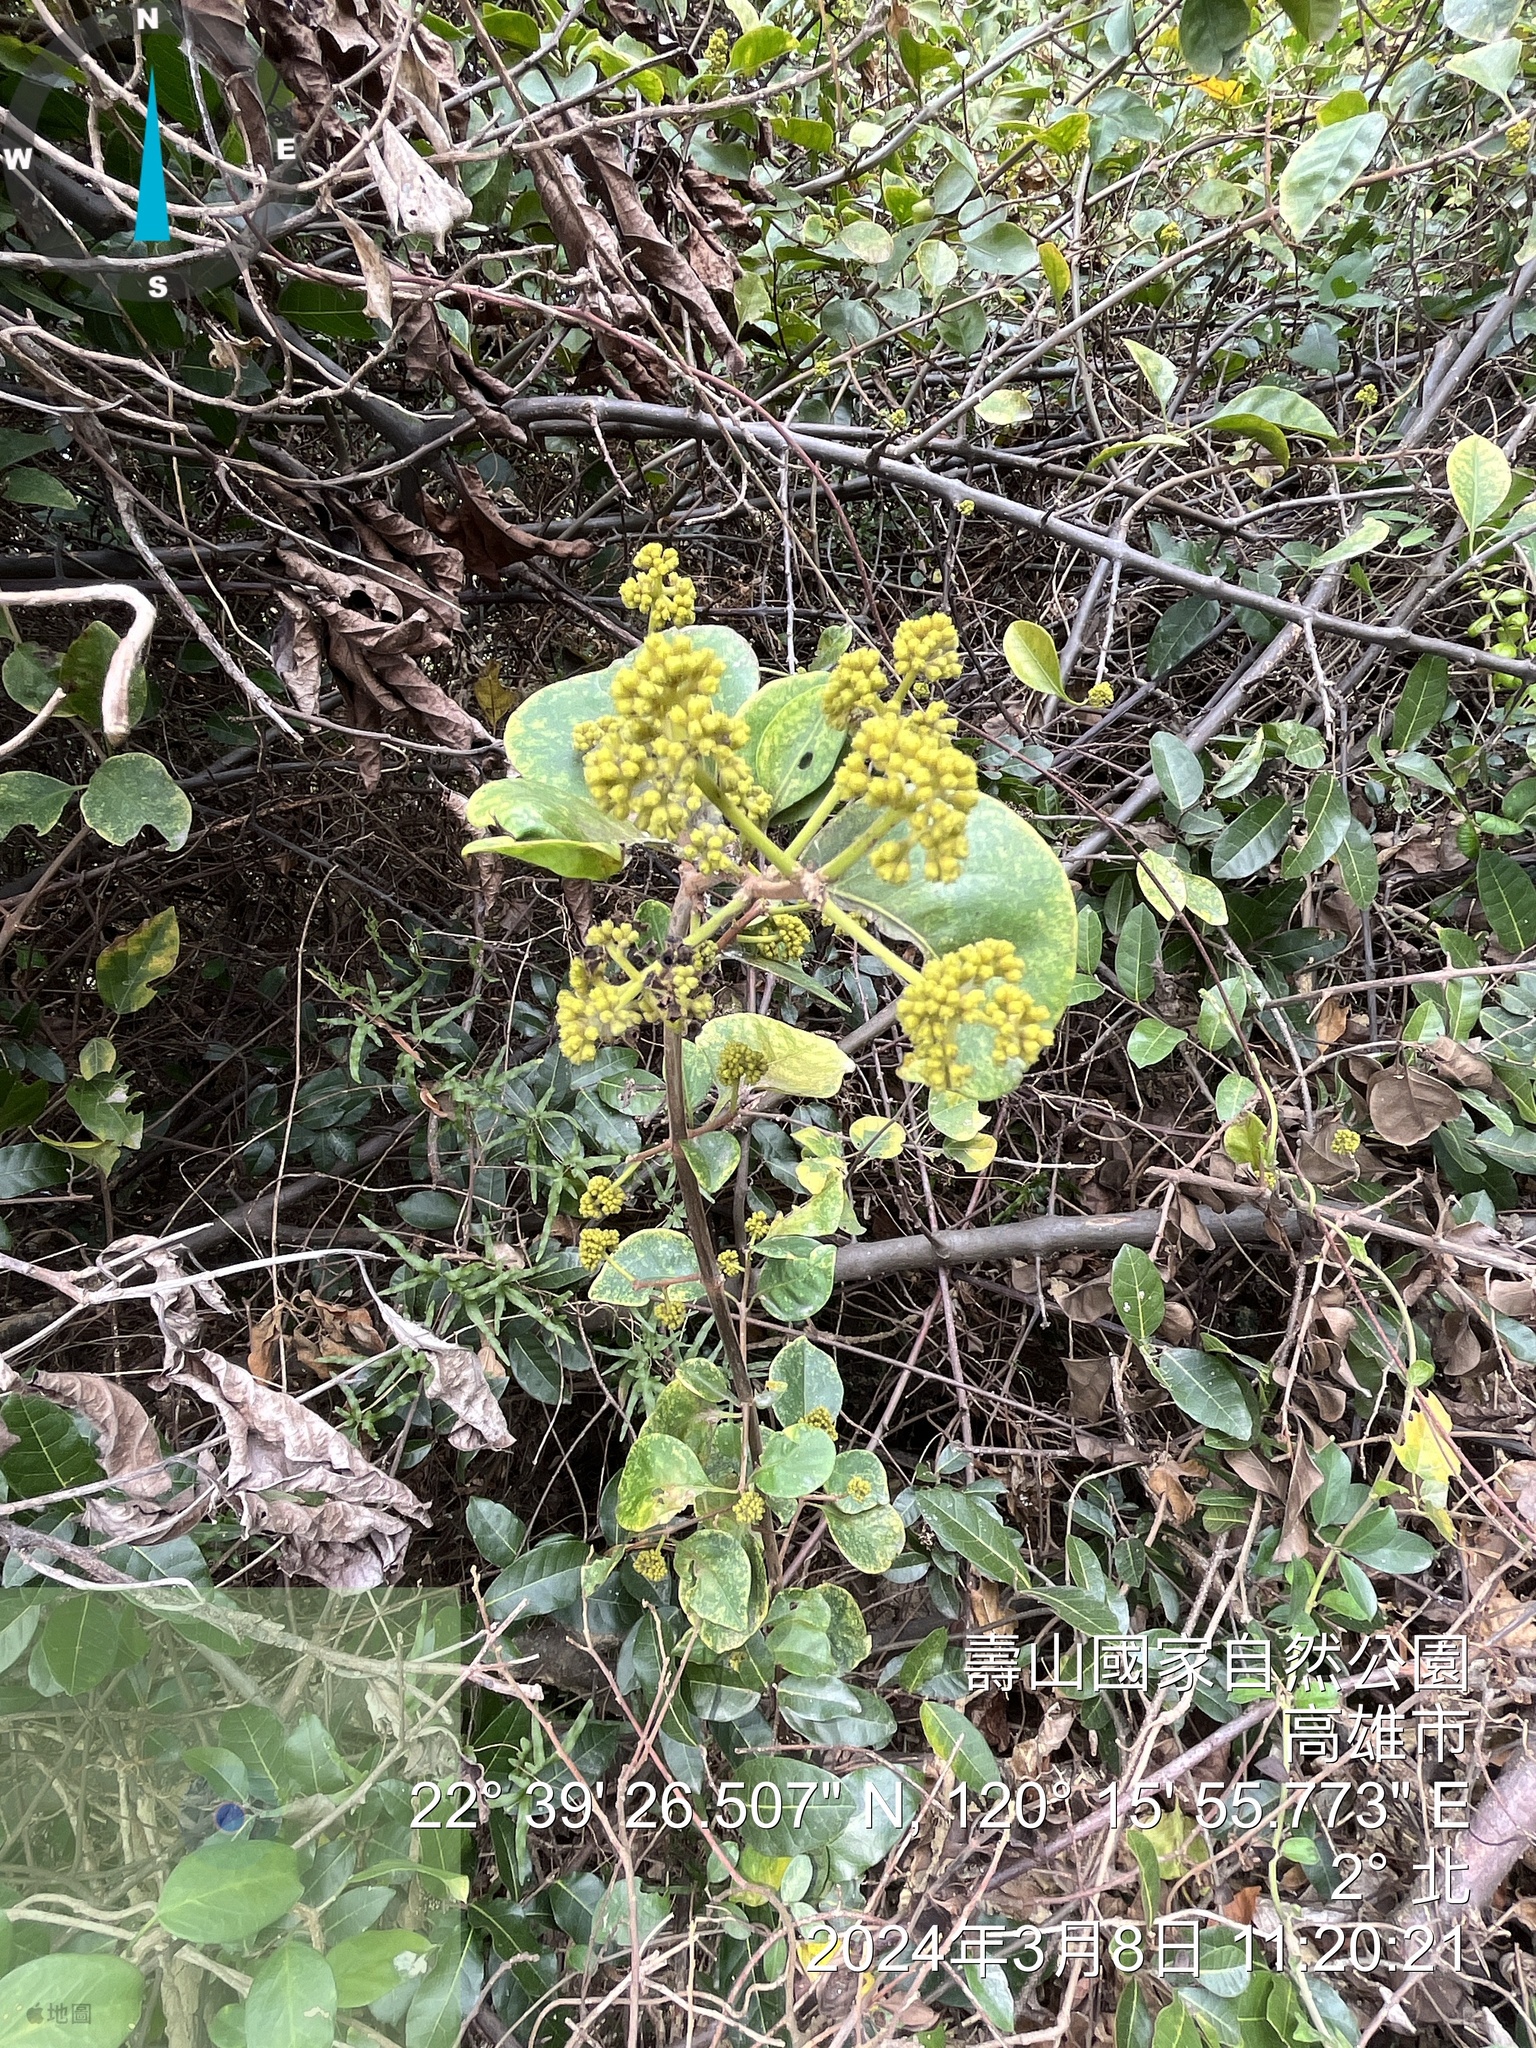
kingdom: Plantae
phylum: Tracheophyta
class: Magnoliopsida
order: Caryophyllales
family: Nyctaginaceae
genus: Pisonia
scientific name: Pisonia aculeata
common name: Cockspur vine
